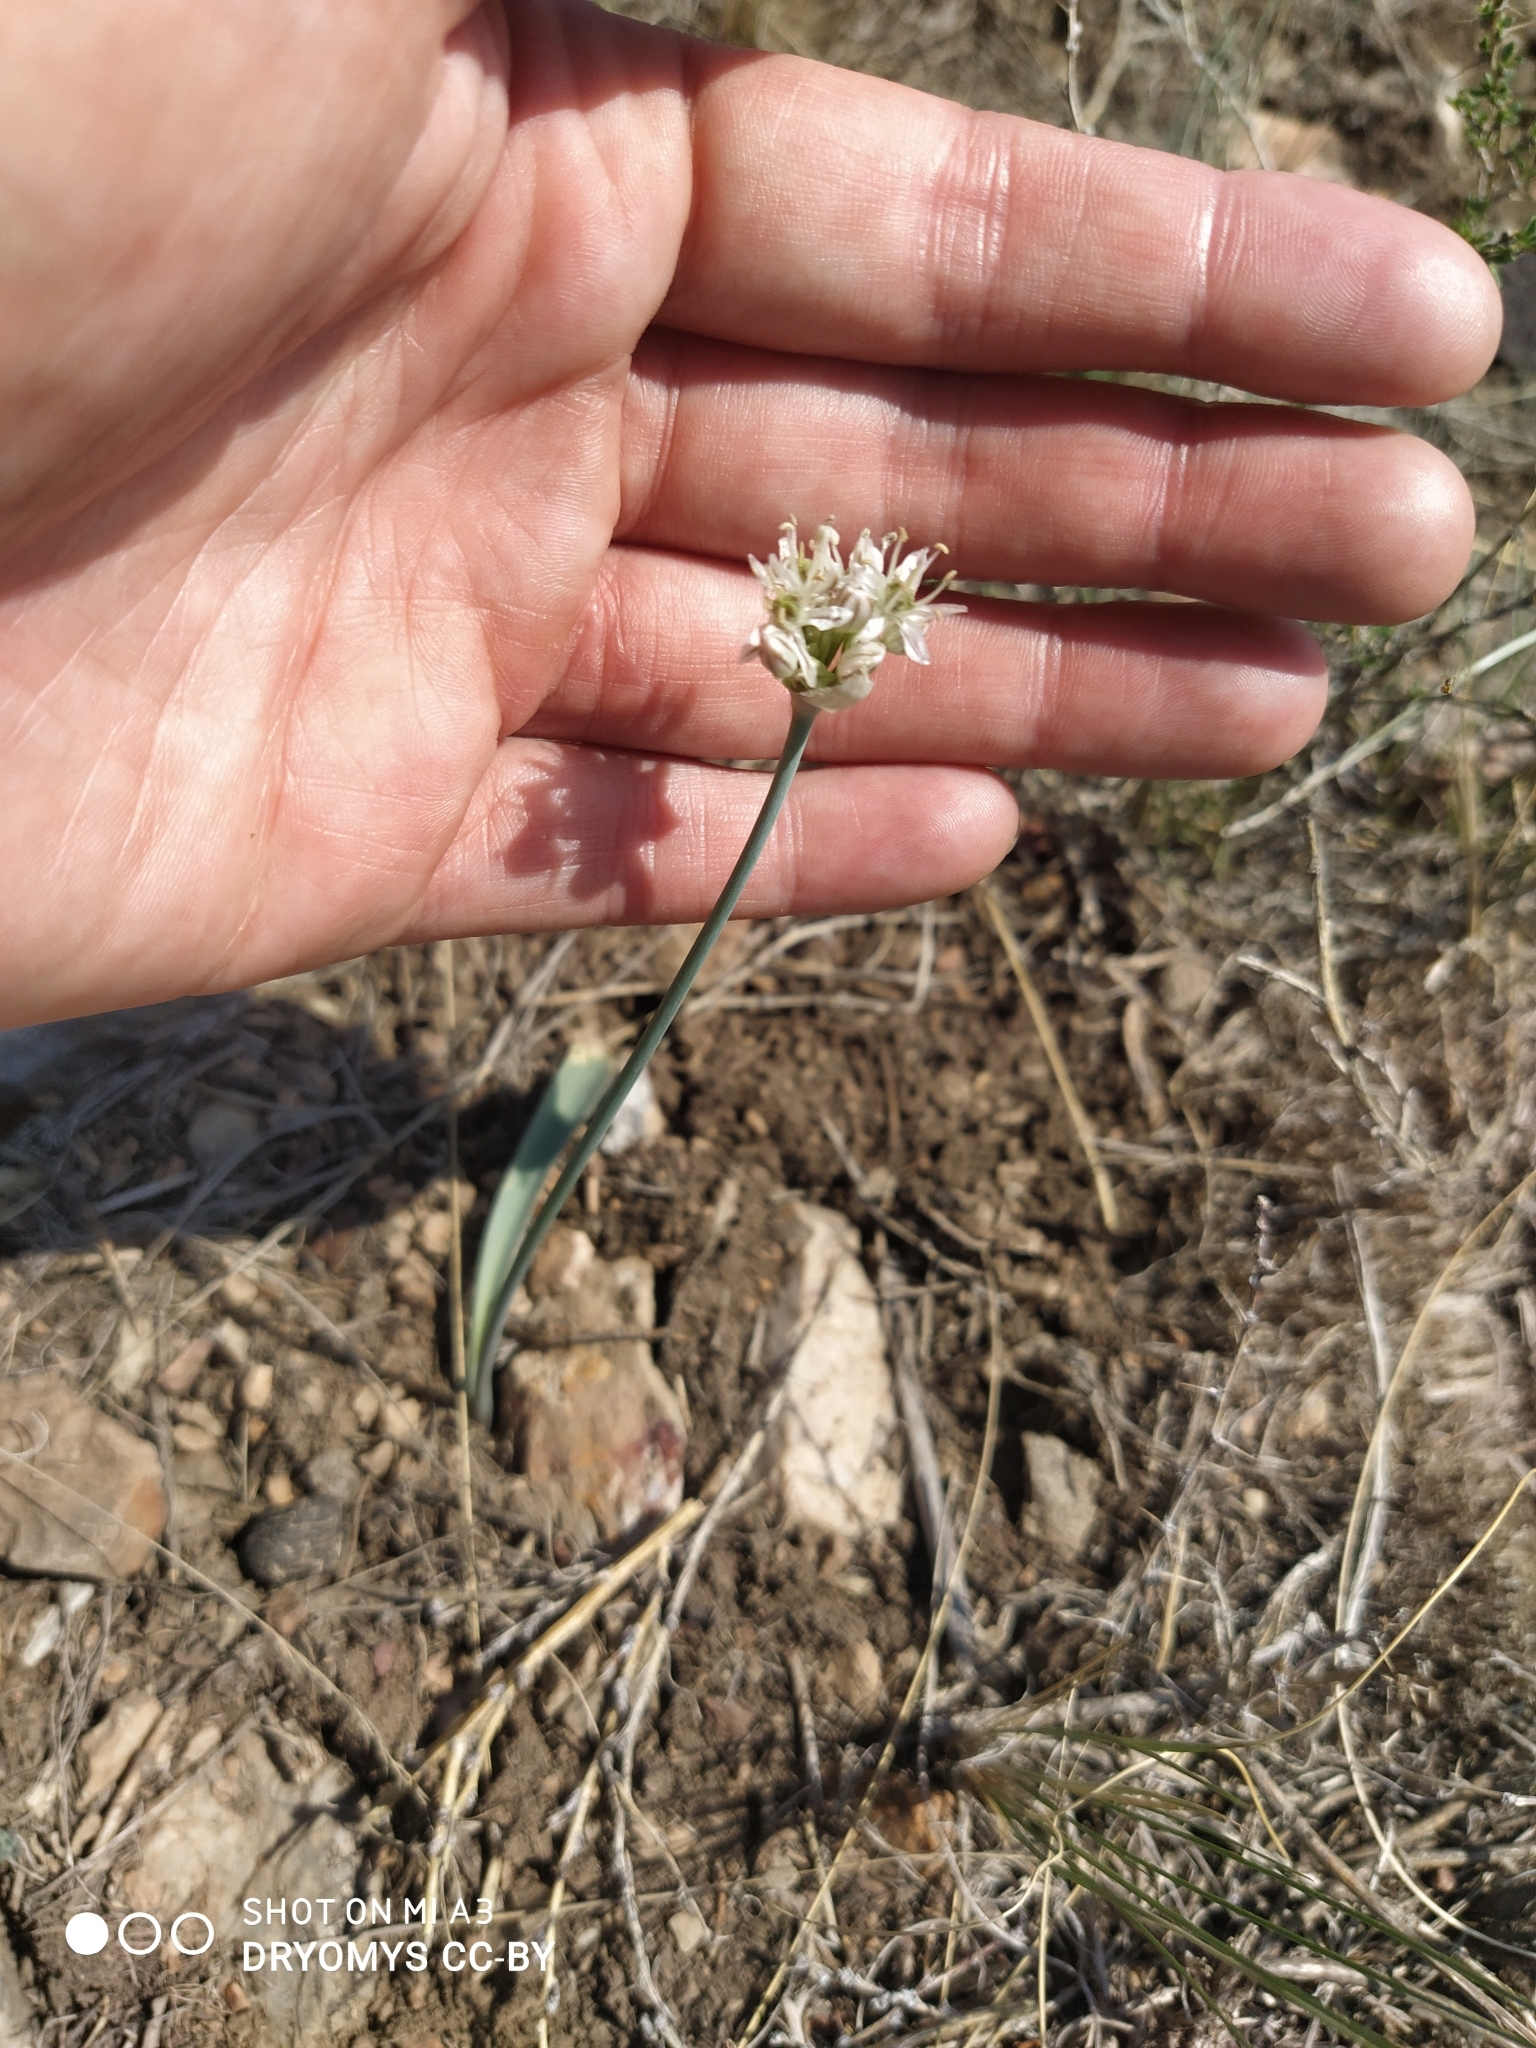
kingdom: Plantae
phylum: Tracheophyta
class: Liliopsida
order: Asparagales
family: Amaryllidaceae
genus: Allium
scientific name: Allium tulipifolium
